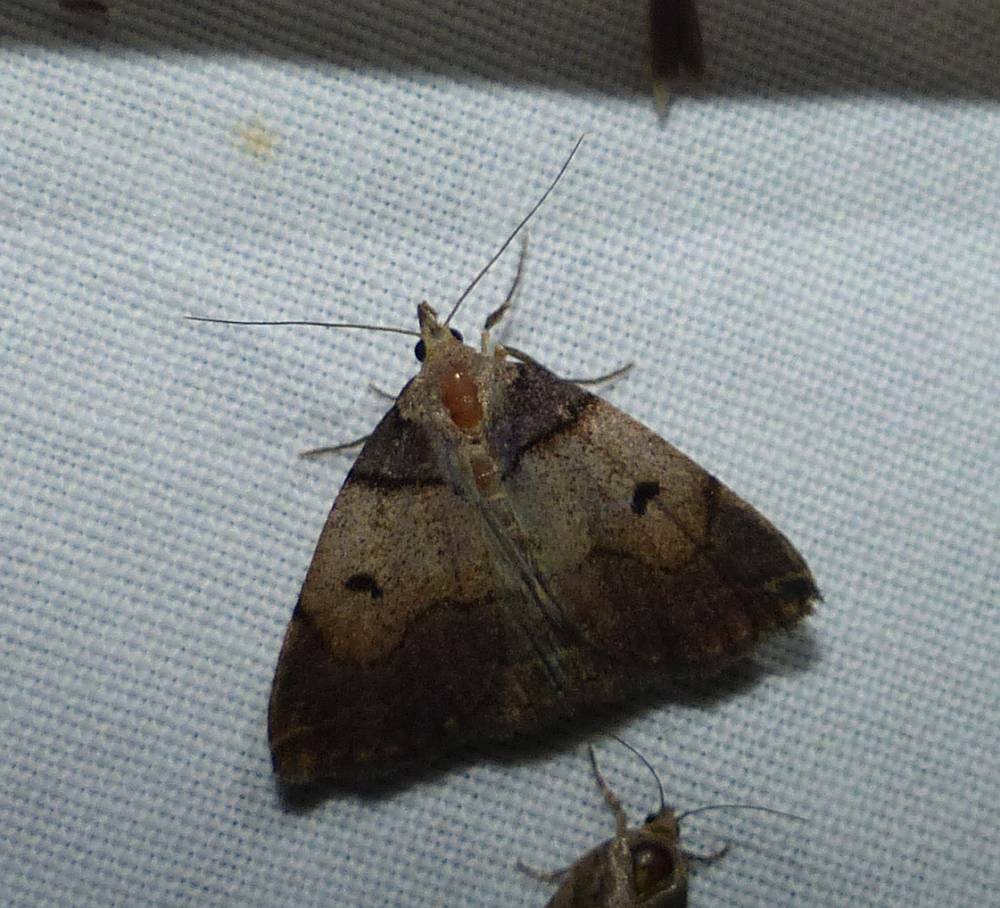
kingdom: Animalia
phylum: Arthropoda
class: Insecta
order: Lepidoptera
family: Erebidae
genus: Zanclognatha
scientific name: Zanclognatha laevigata
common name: Variable fan-foot
